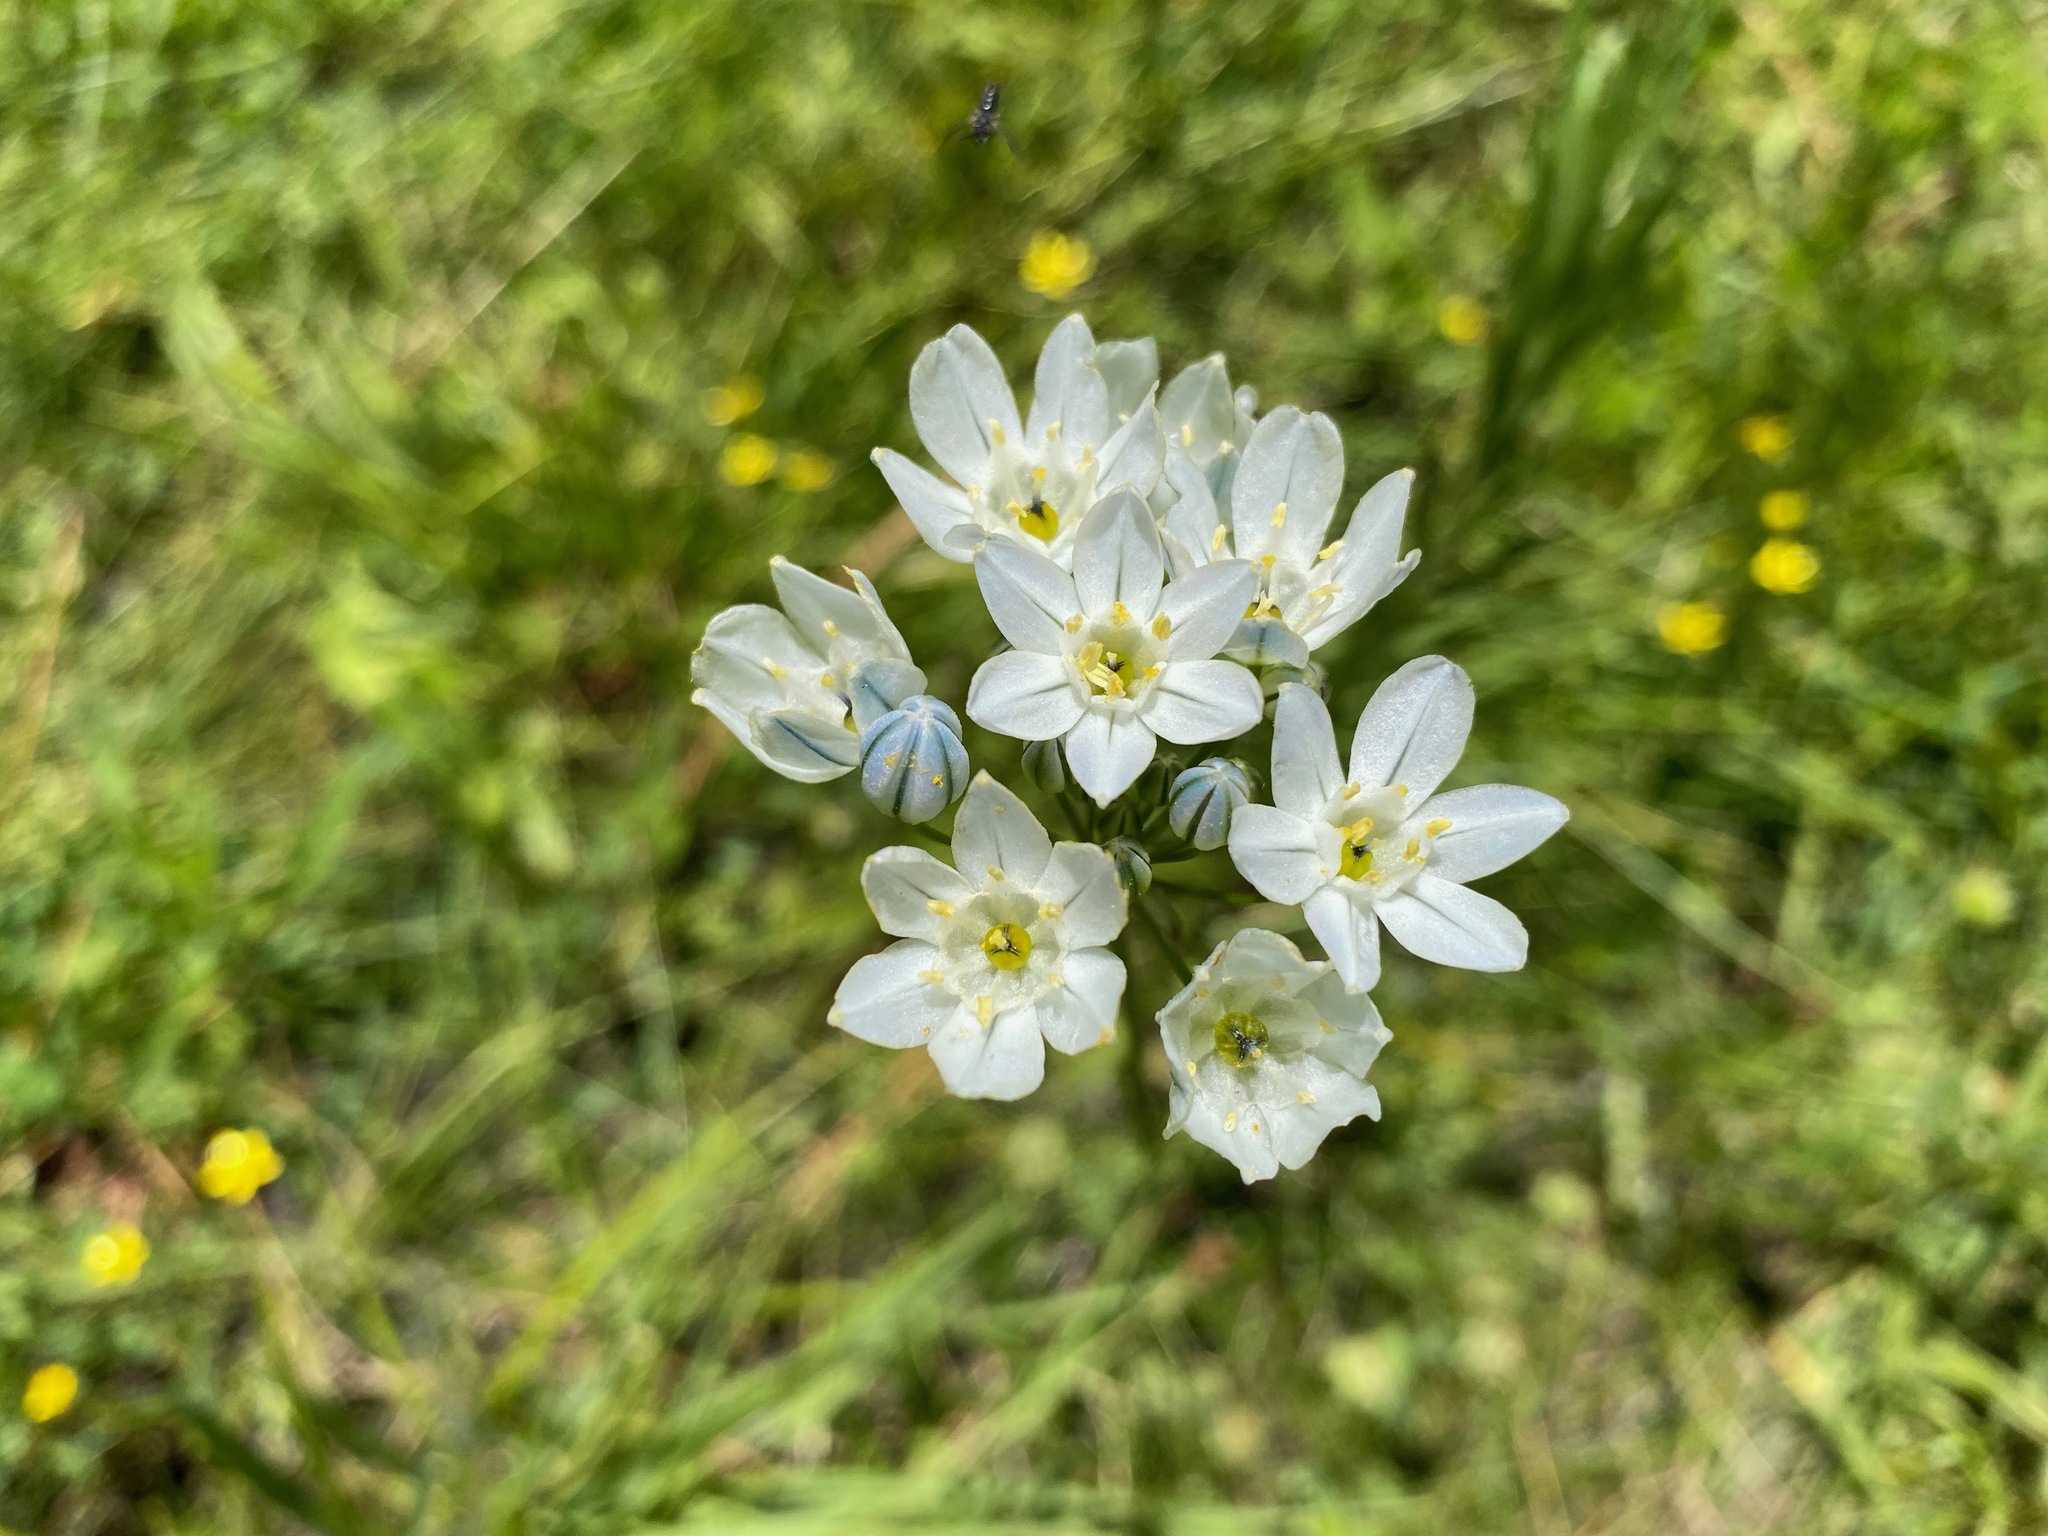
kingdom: Plantae
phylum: Tracheophyta
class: Liliopsida
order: Asparagales
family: Asparagaceae
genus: Triteleia
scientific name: Triteleia hyacinthina
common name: White brodiaea
